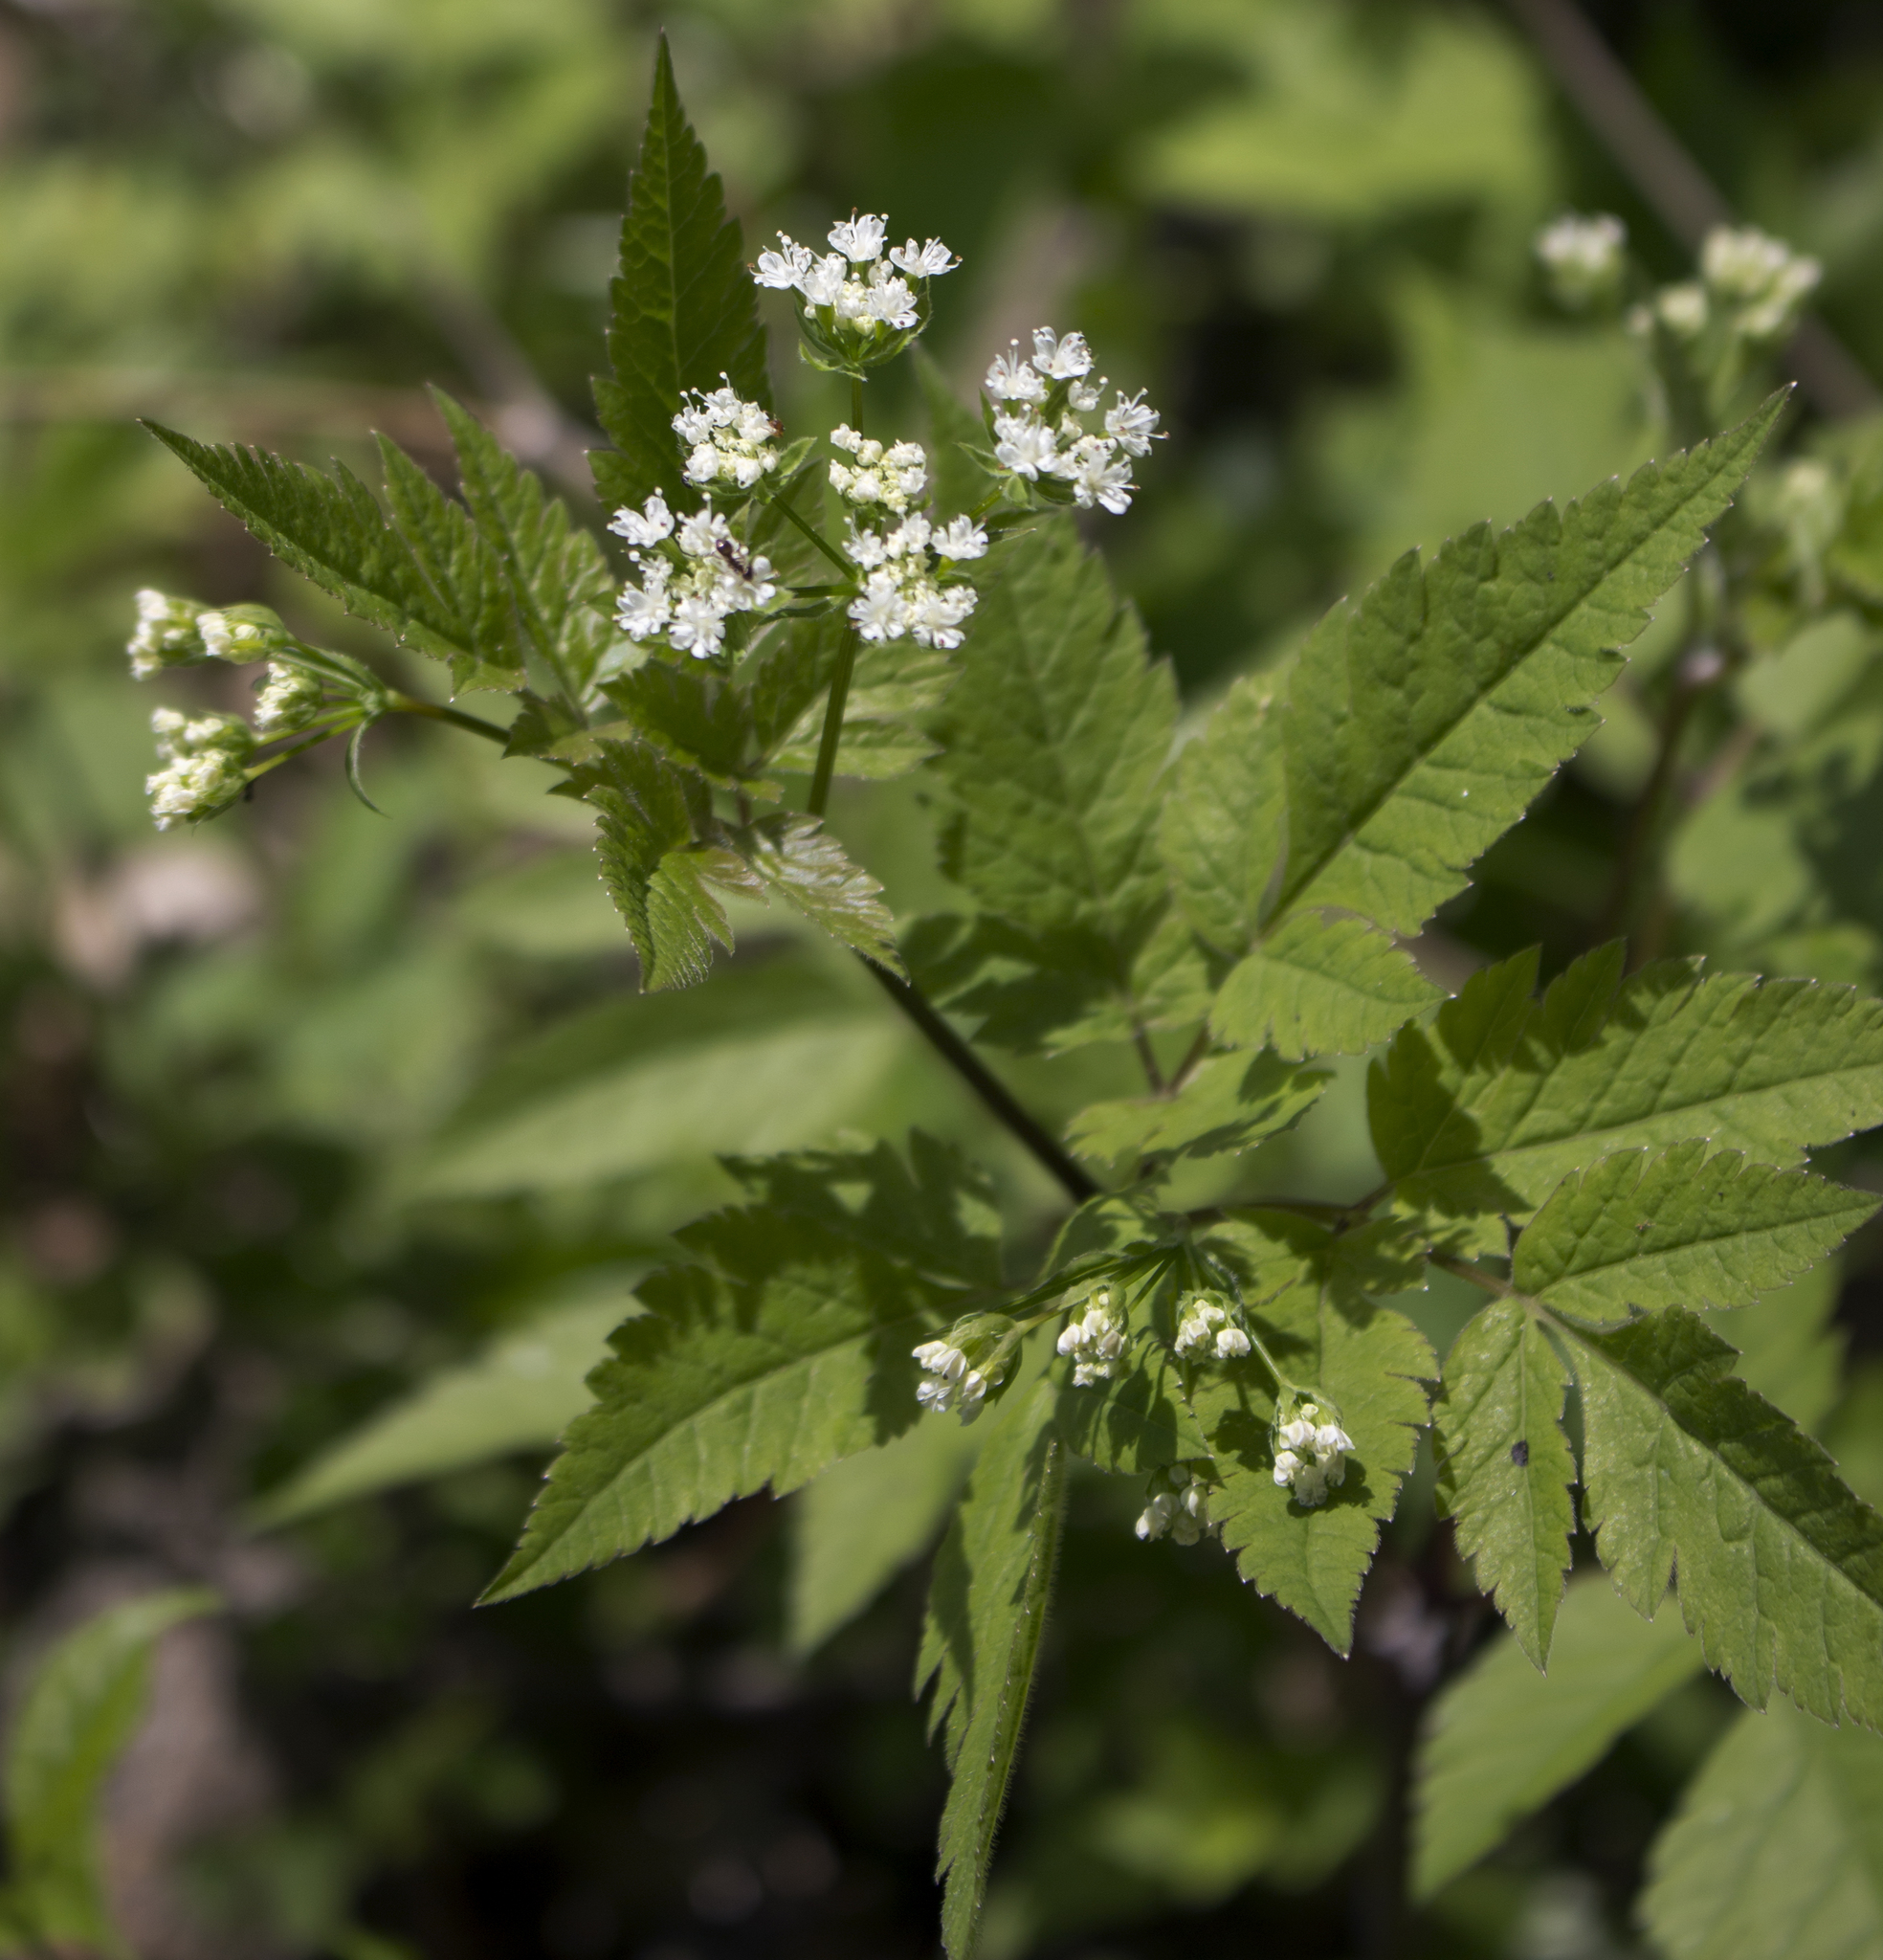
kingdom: Plantae
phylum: Tracheophyta
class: Magnoliopsida
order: Apiales
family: Apiaceae
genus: Osmorhiza
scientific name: Osmorhiza longistylis
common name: Smooth sweet cicely
